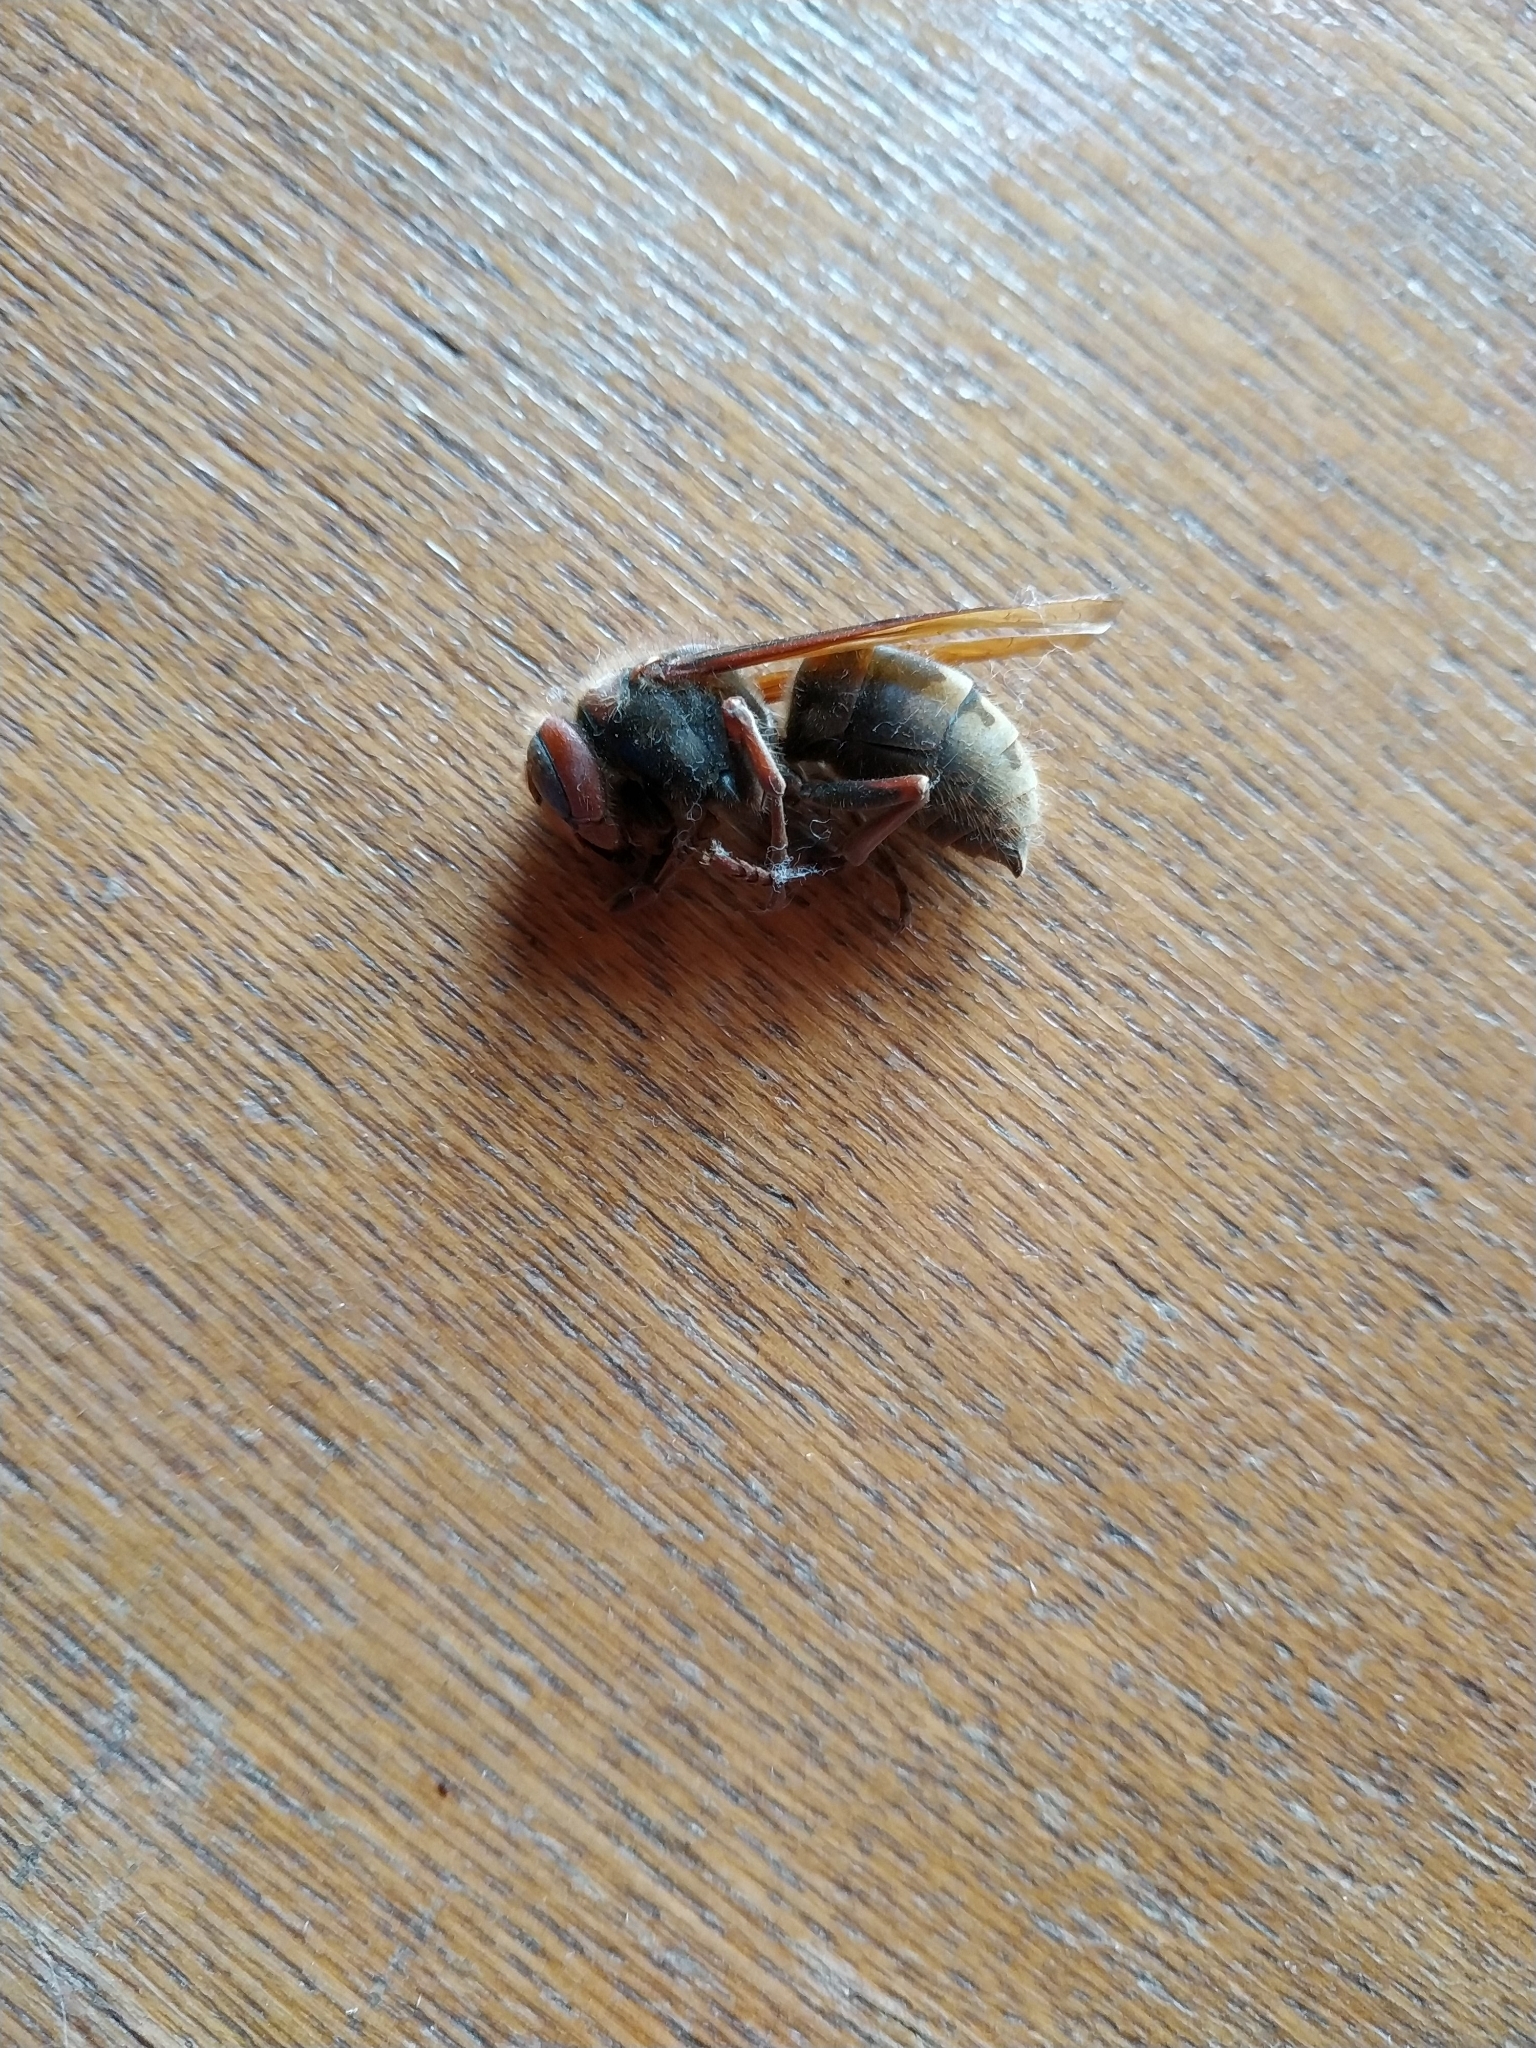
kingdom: Animalia
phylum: Arthropoda
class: Insecta
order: Hymenoptera
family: Vespidae
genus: Vespa
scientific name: Vespa crabro
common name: Hornet
